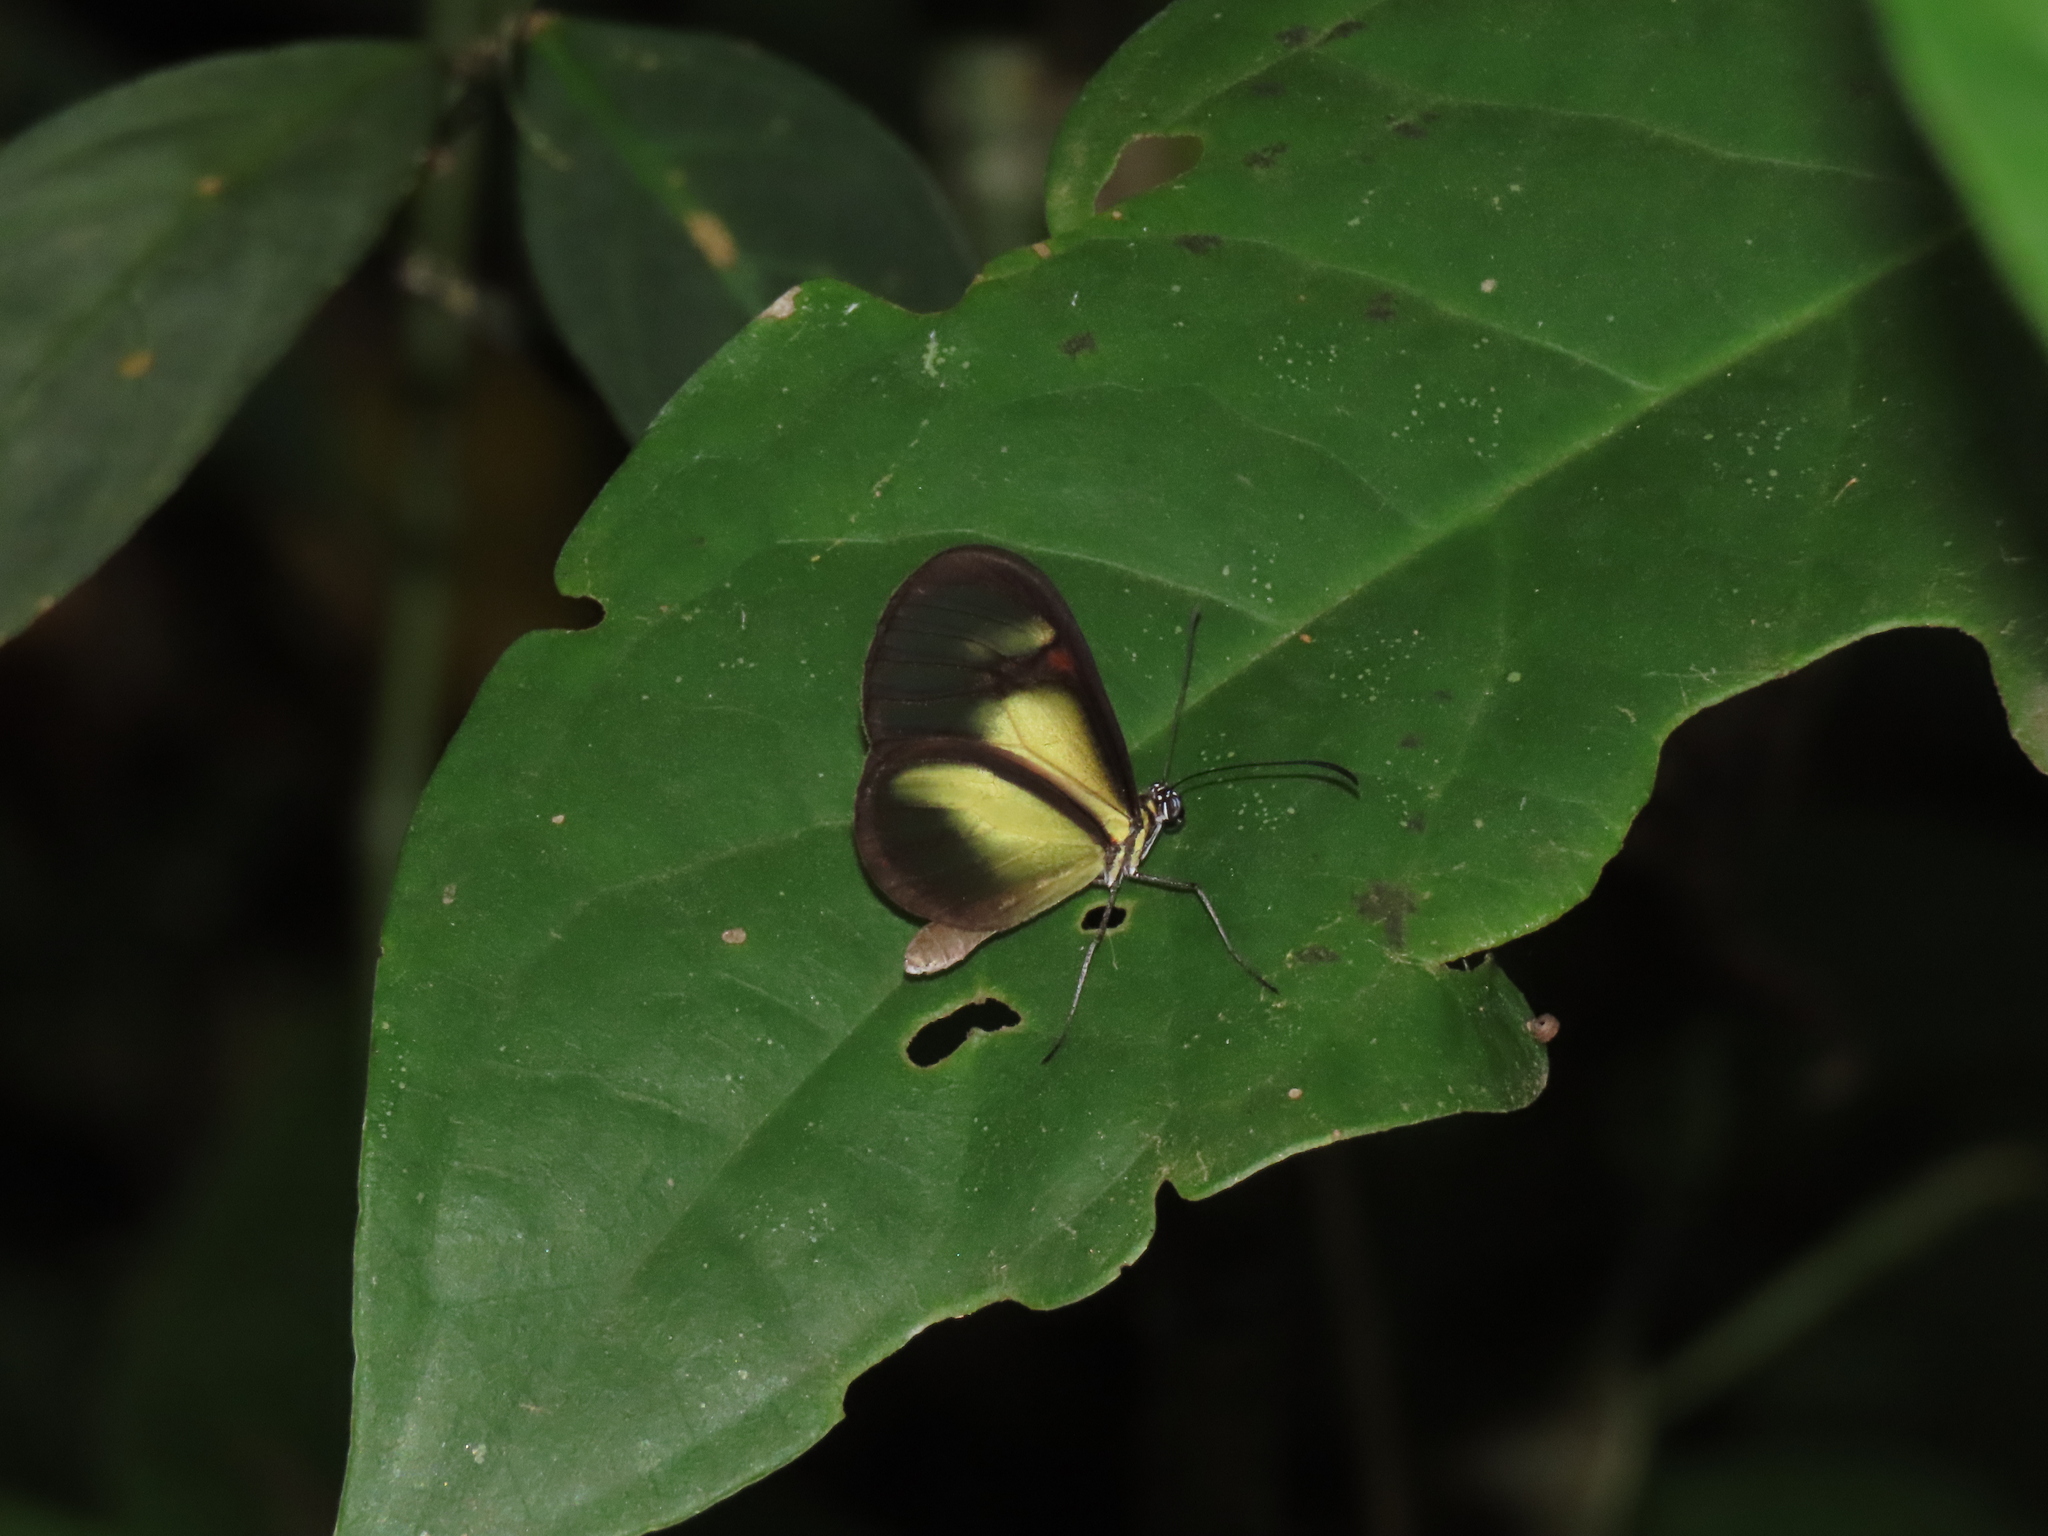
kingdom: Animalia
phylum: Arthropoda
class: Insecta
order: Lepidoptera
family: Nymphalidae
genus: Pteronymia
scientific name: Pteronymia euritea
